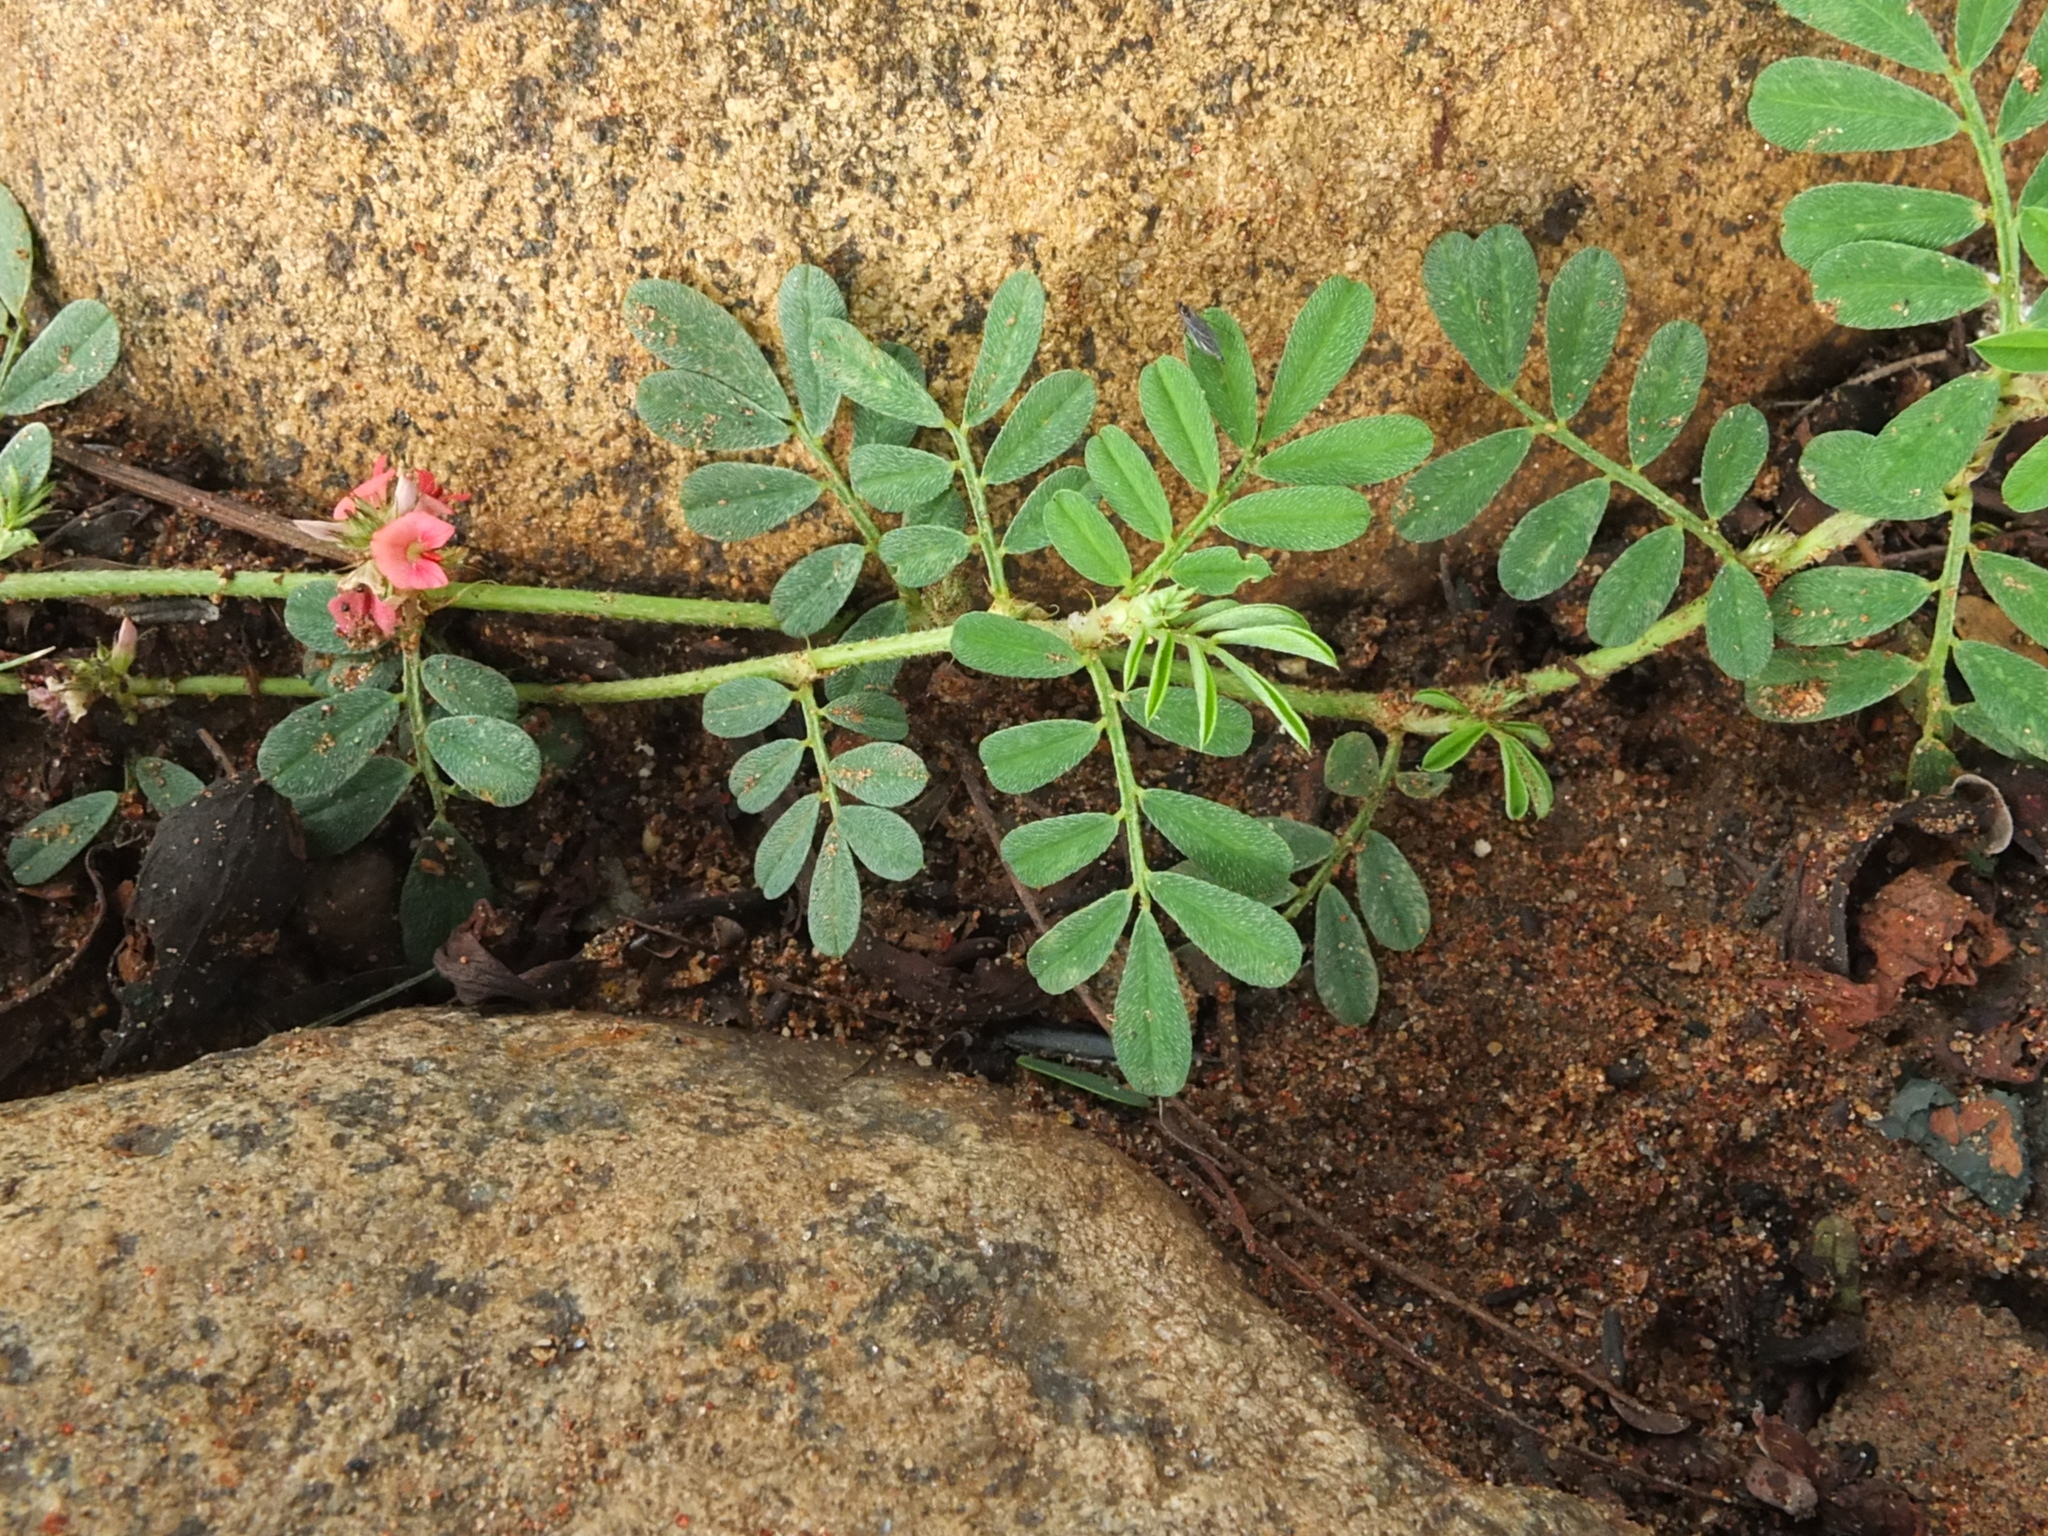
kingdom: Plantae
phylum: Tracheophyta
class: Magnoliopsida
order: Fabales
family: Fabaceae
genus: Indigofera
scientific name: Indigofera linnaei
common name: Nine-leaf indigo
